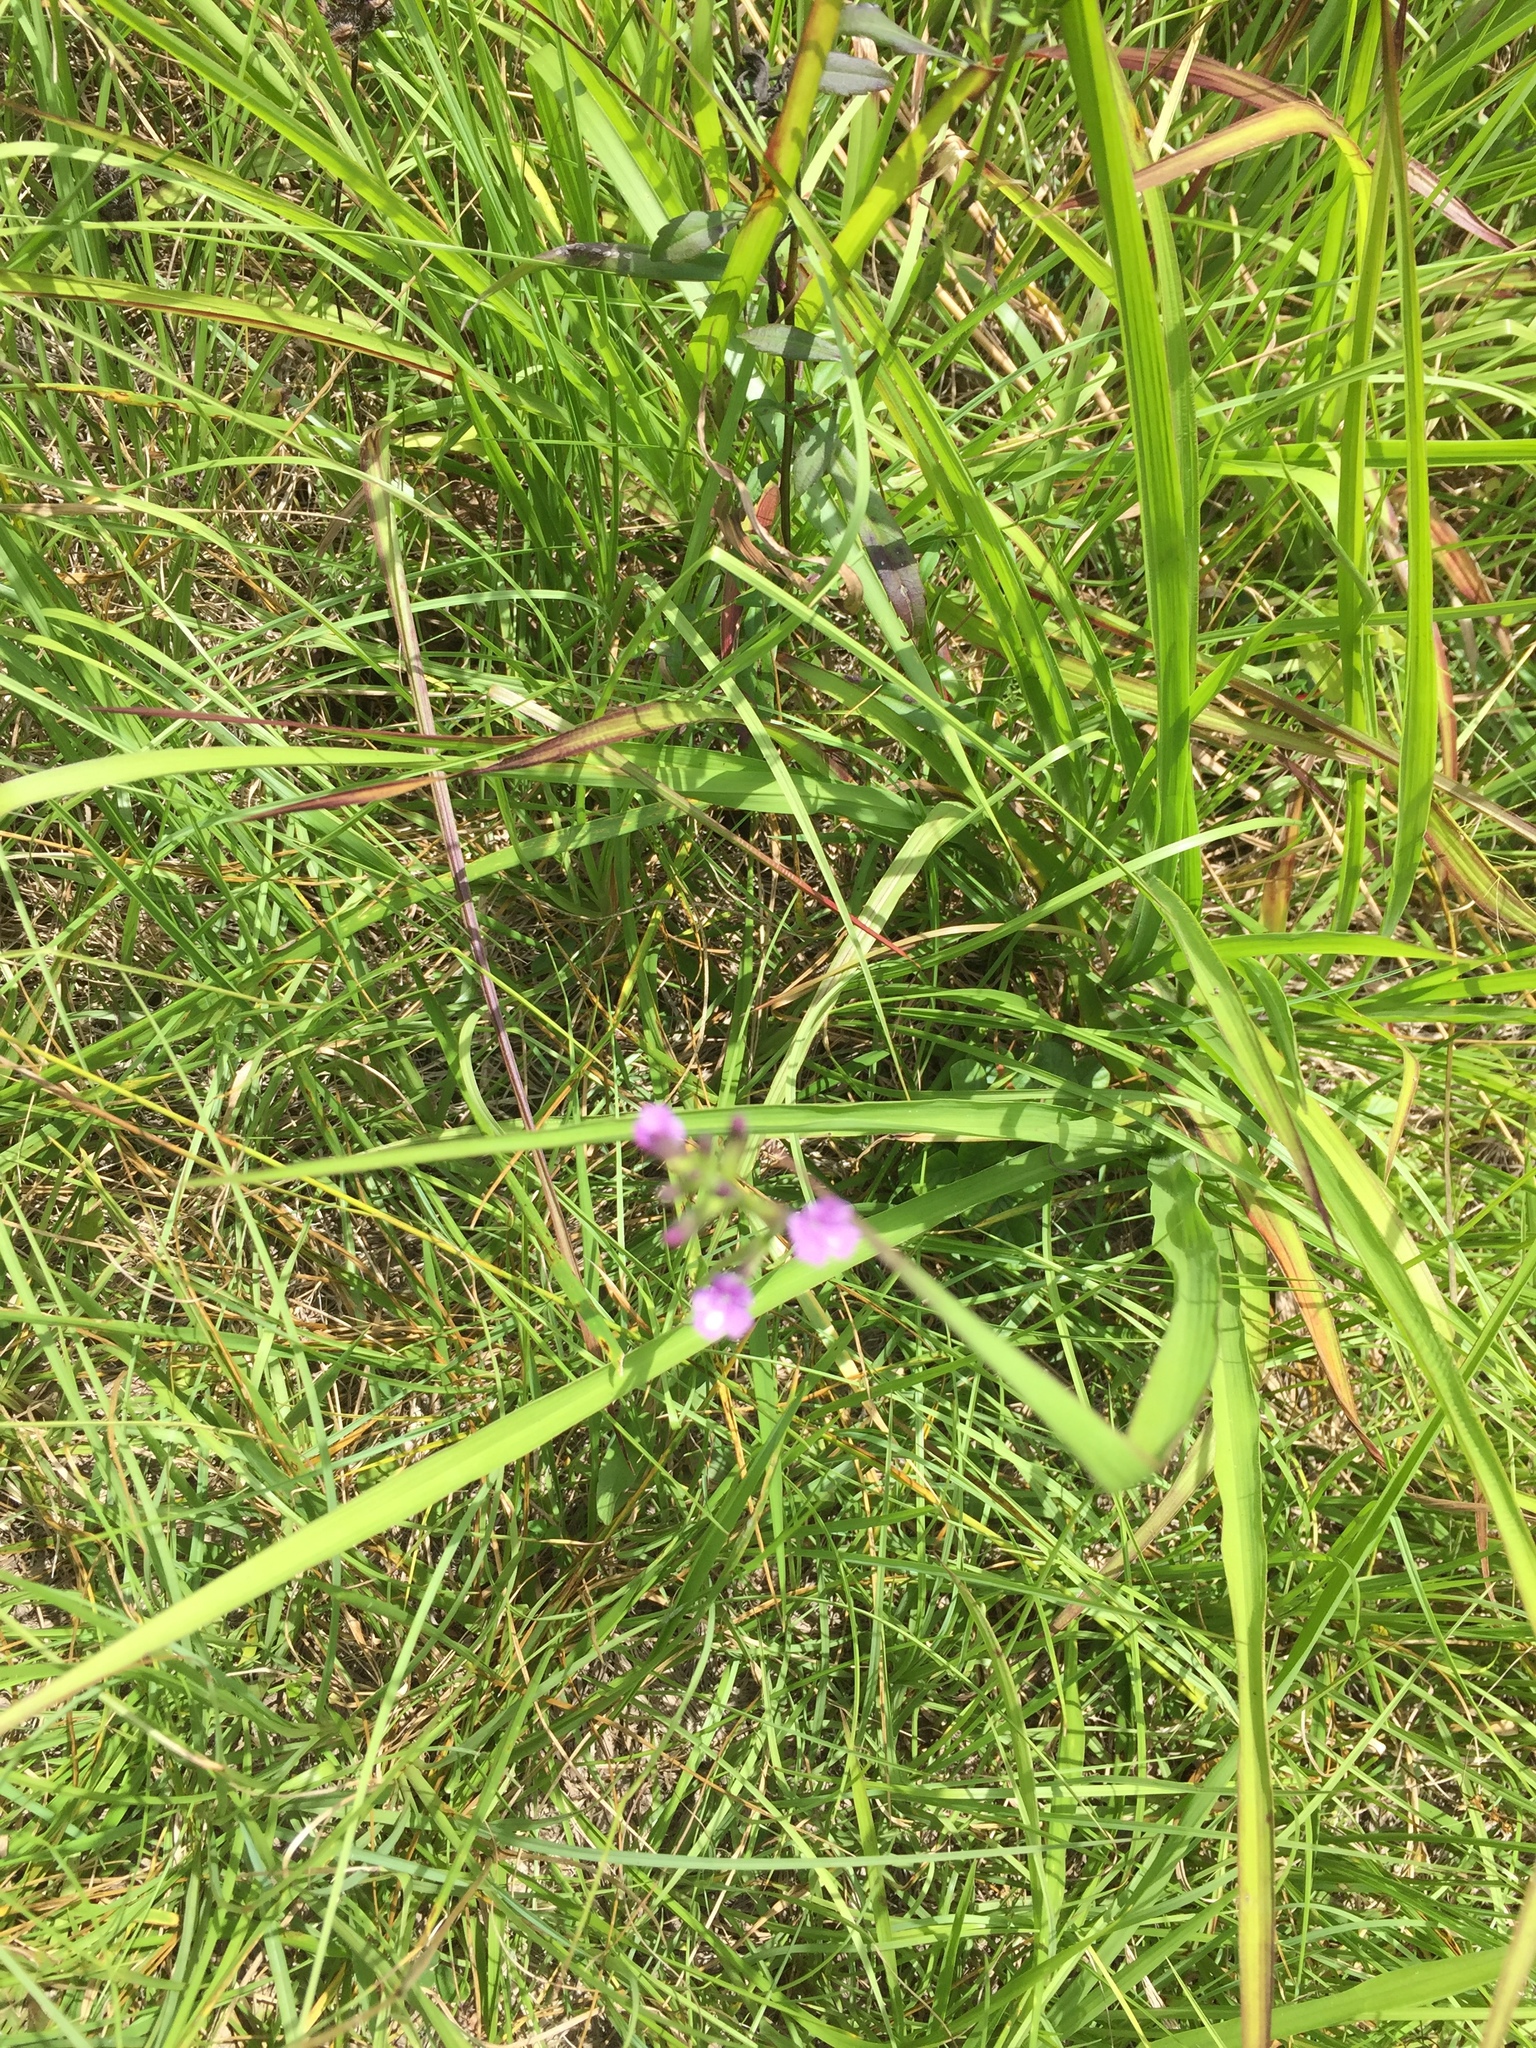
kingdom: Plantae
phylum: Tracheophyta
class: Magnoliopsida
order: Lamiales
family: Orobanchaceae
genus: Buchnera
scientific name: Buchnera floridana
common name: Florida bluehearts
